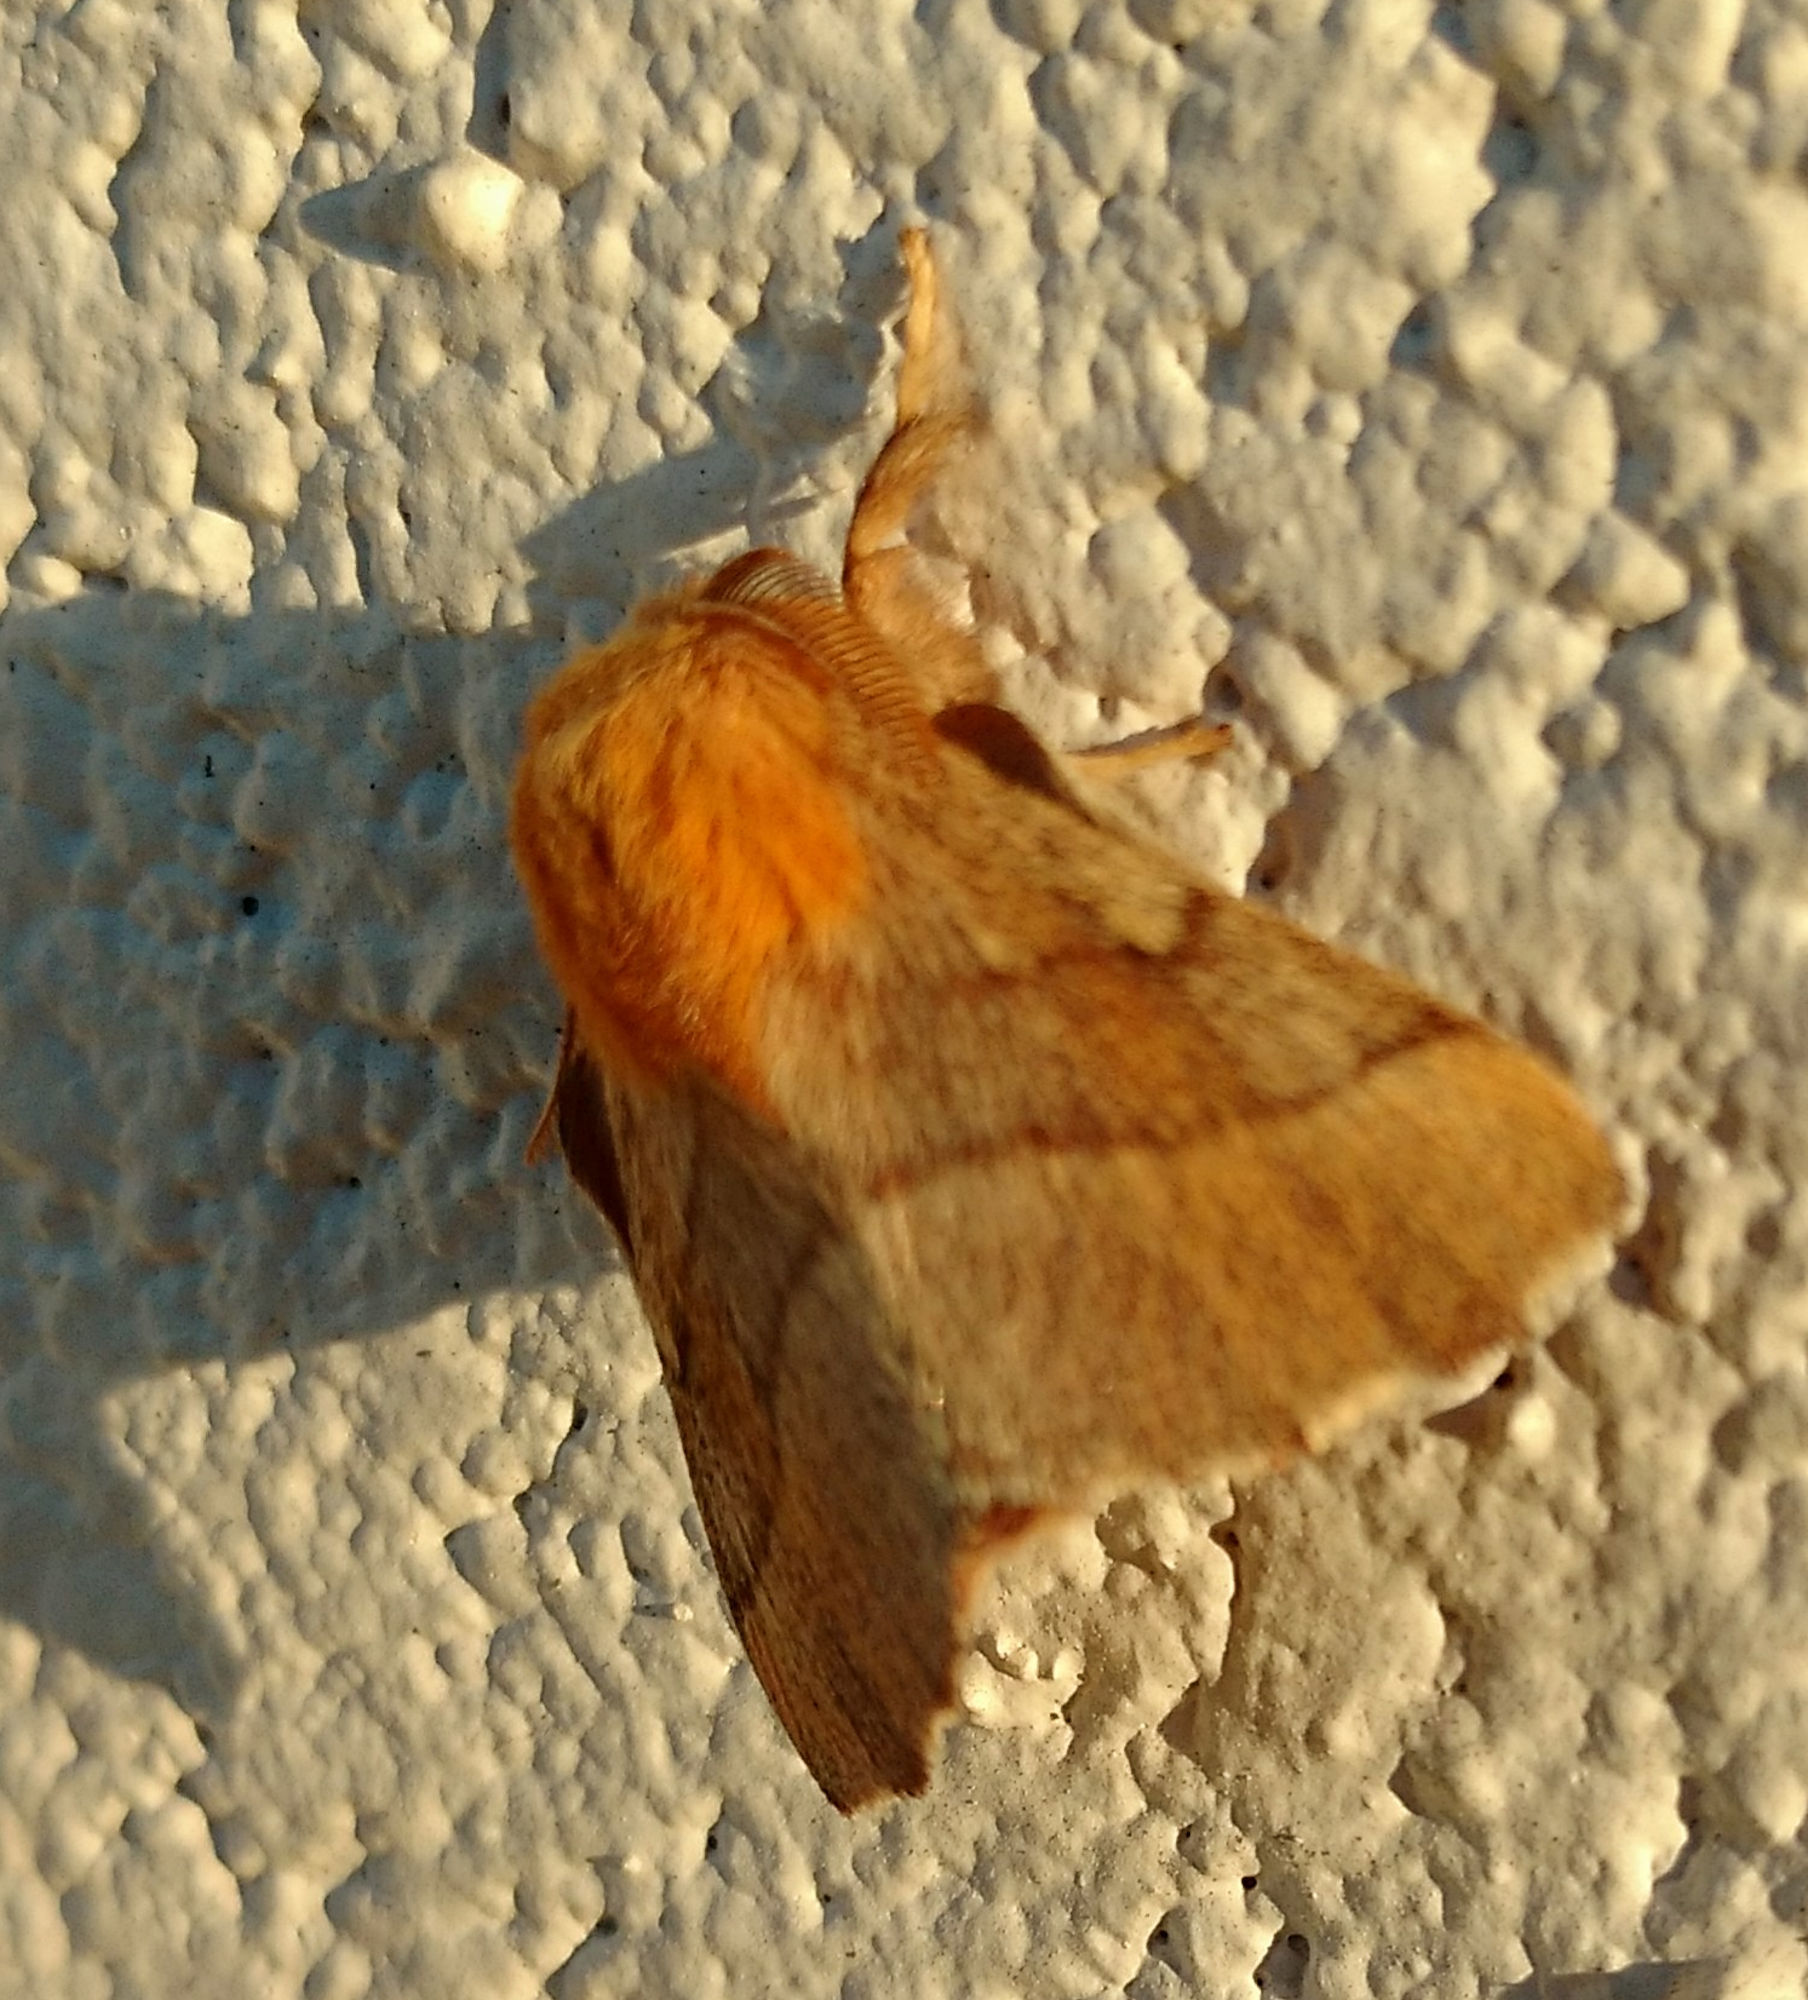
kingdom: Animalia
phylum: Arthropoda
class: Insecta
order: Lepidoptera
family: Lasiocampidae
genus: Malacosoma
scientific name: Malacosoma disstria
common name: Forest tent caterpillar
